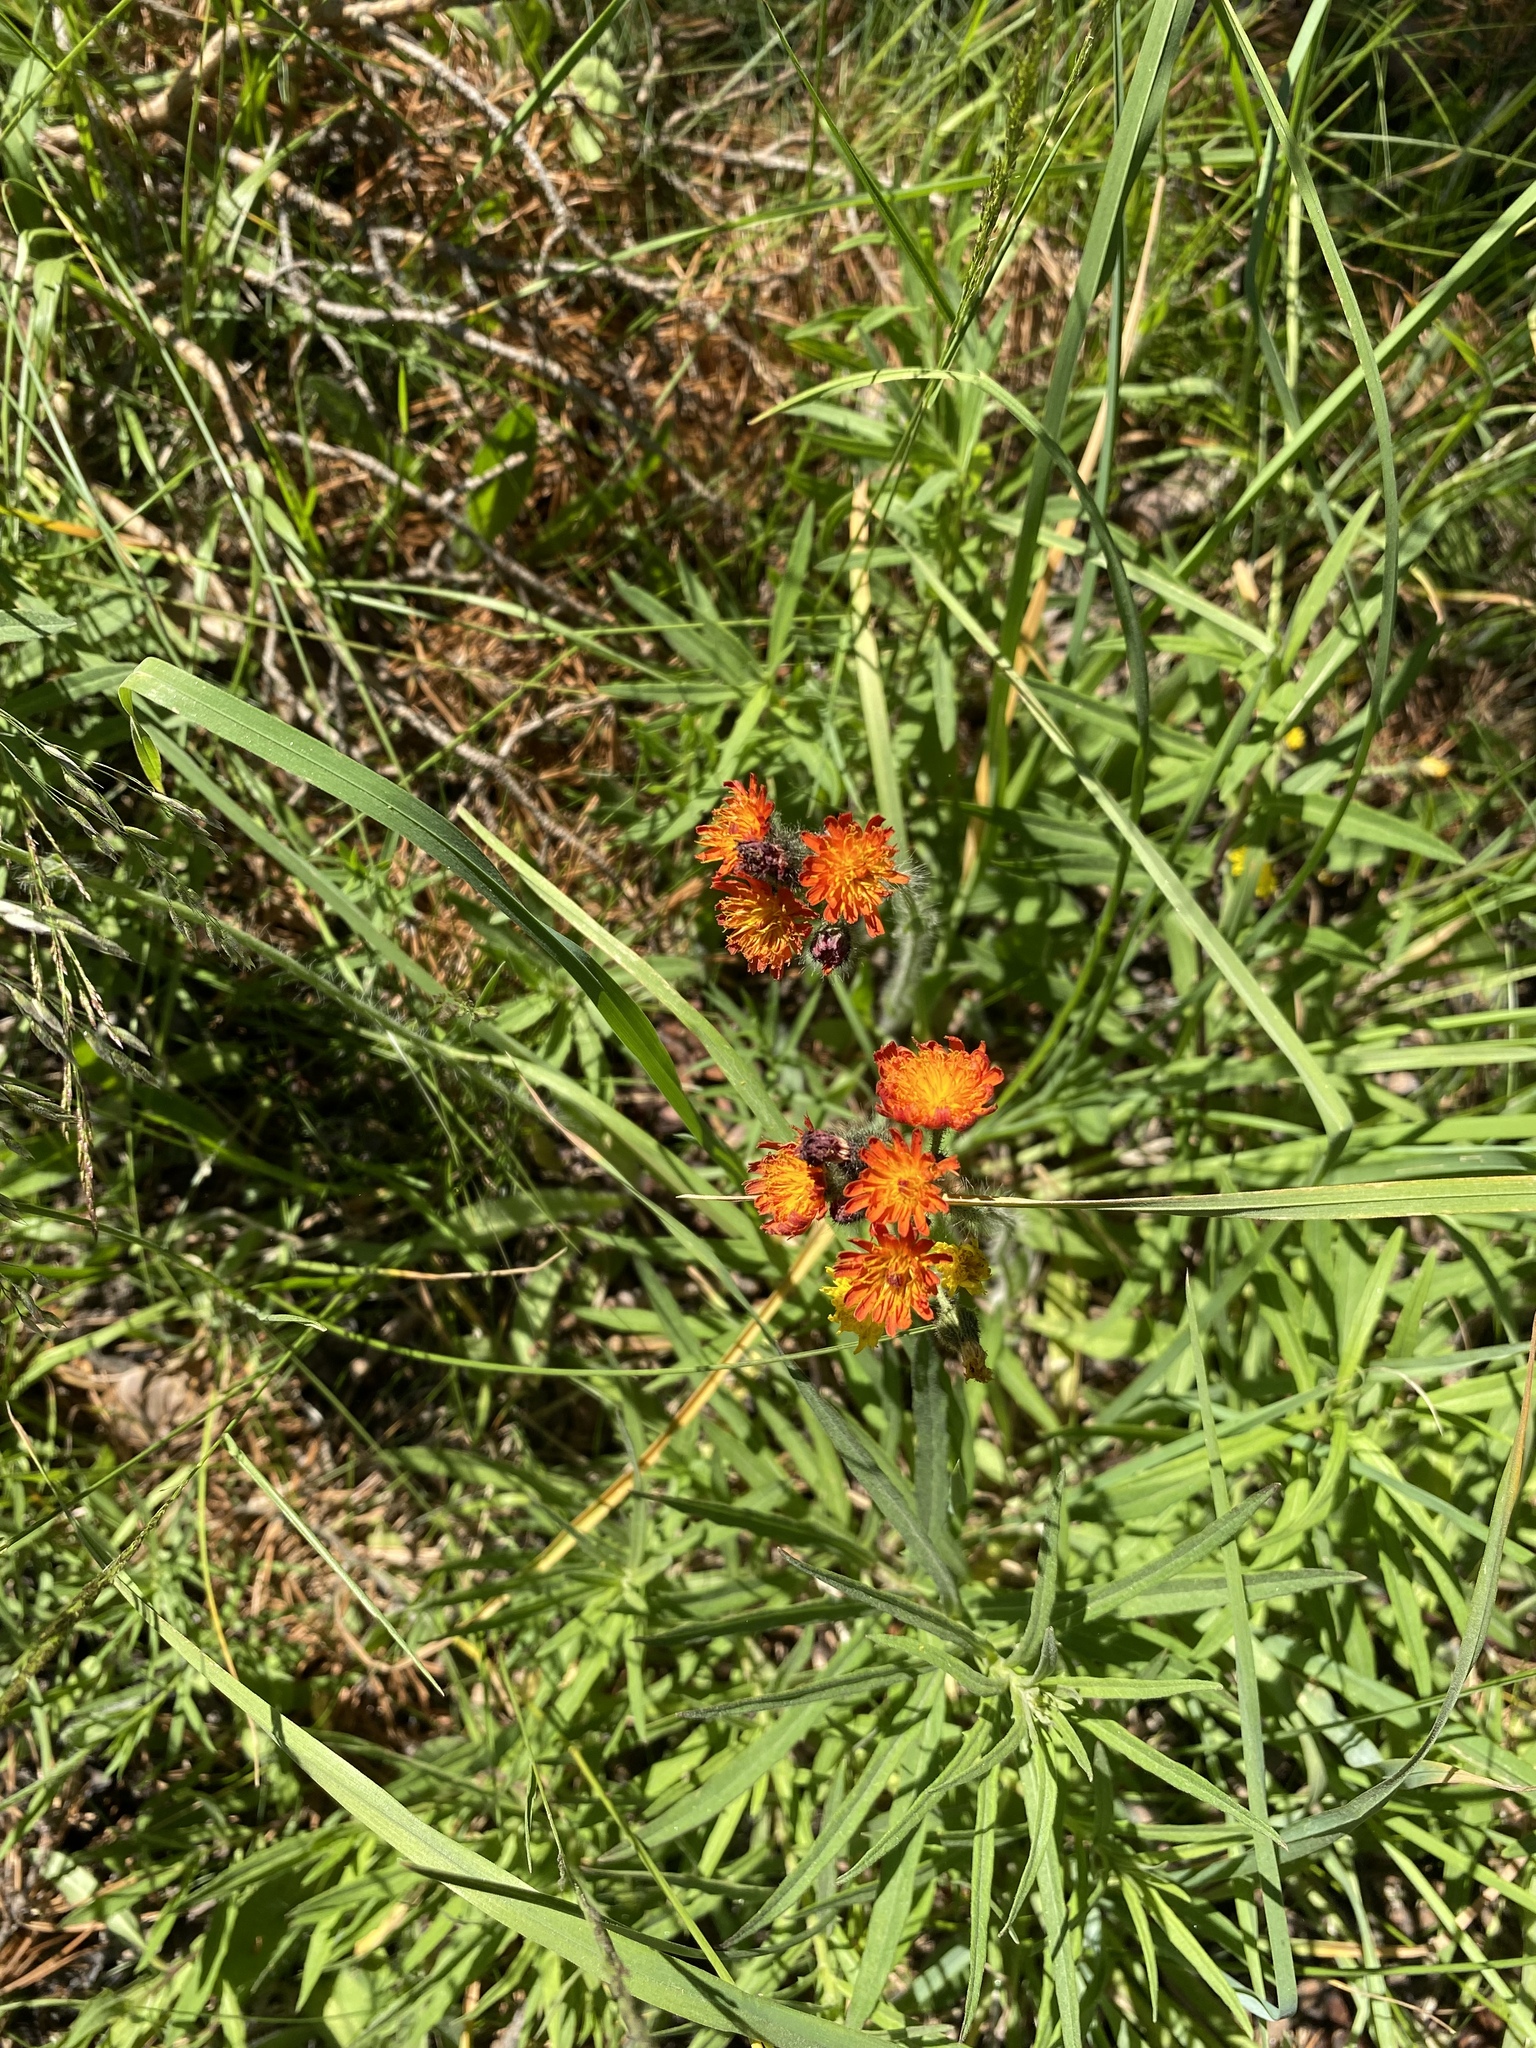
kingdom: Plantae
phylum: Tracheophyta
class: Magnoliopsida
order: Asterales
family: Asteraceae
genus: Pilosella
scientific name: Pilosella aurantiaca
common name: Fox-and-cubs
